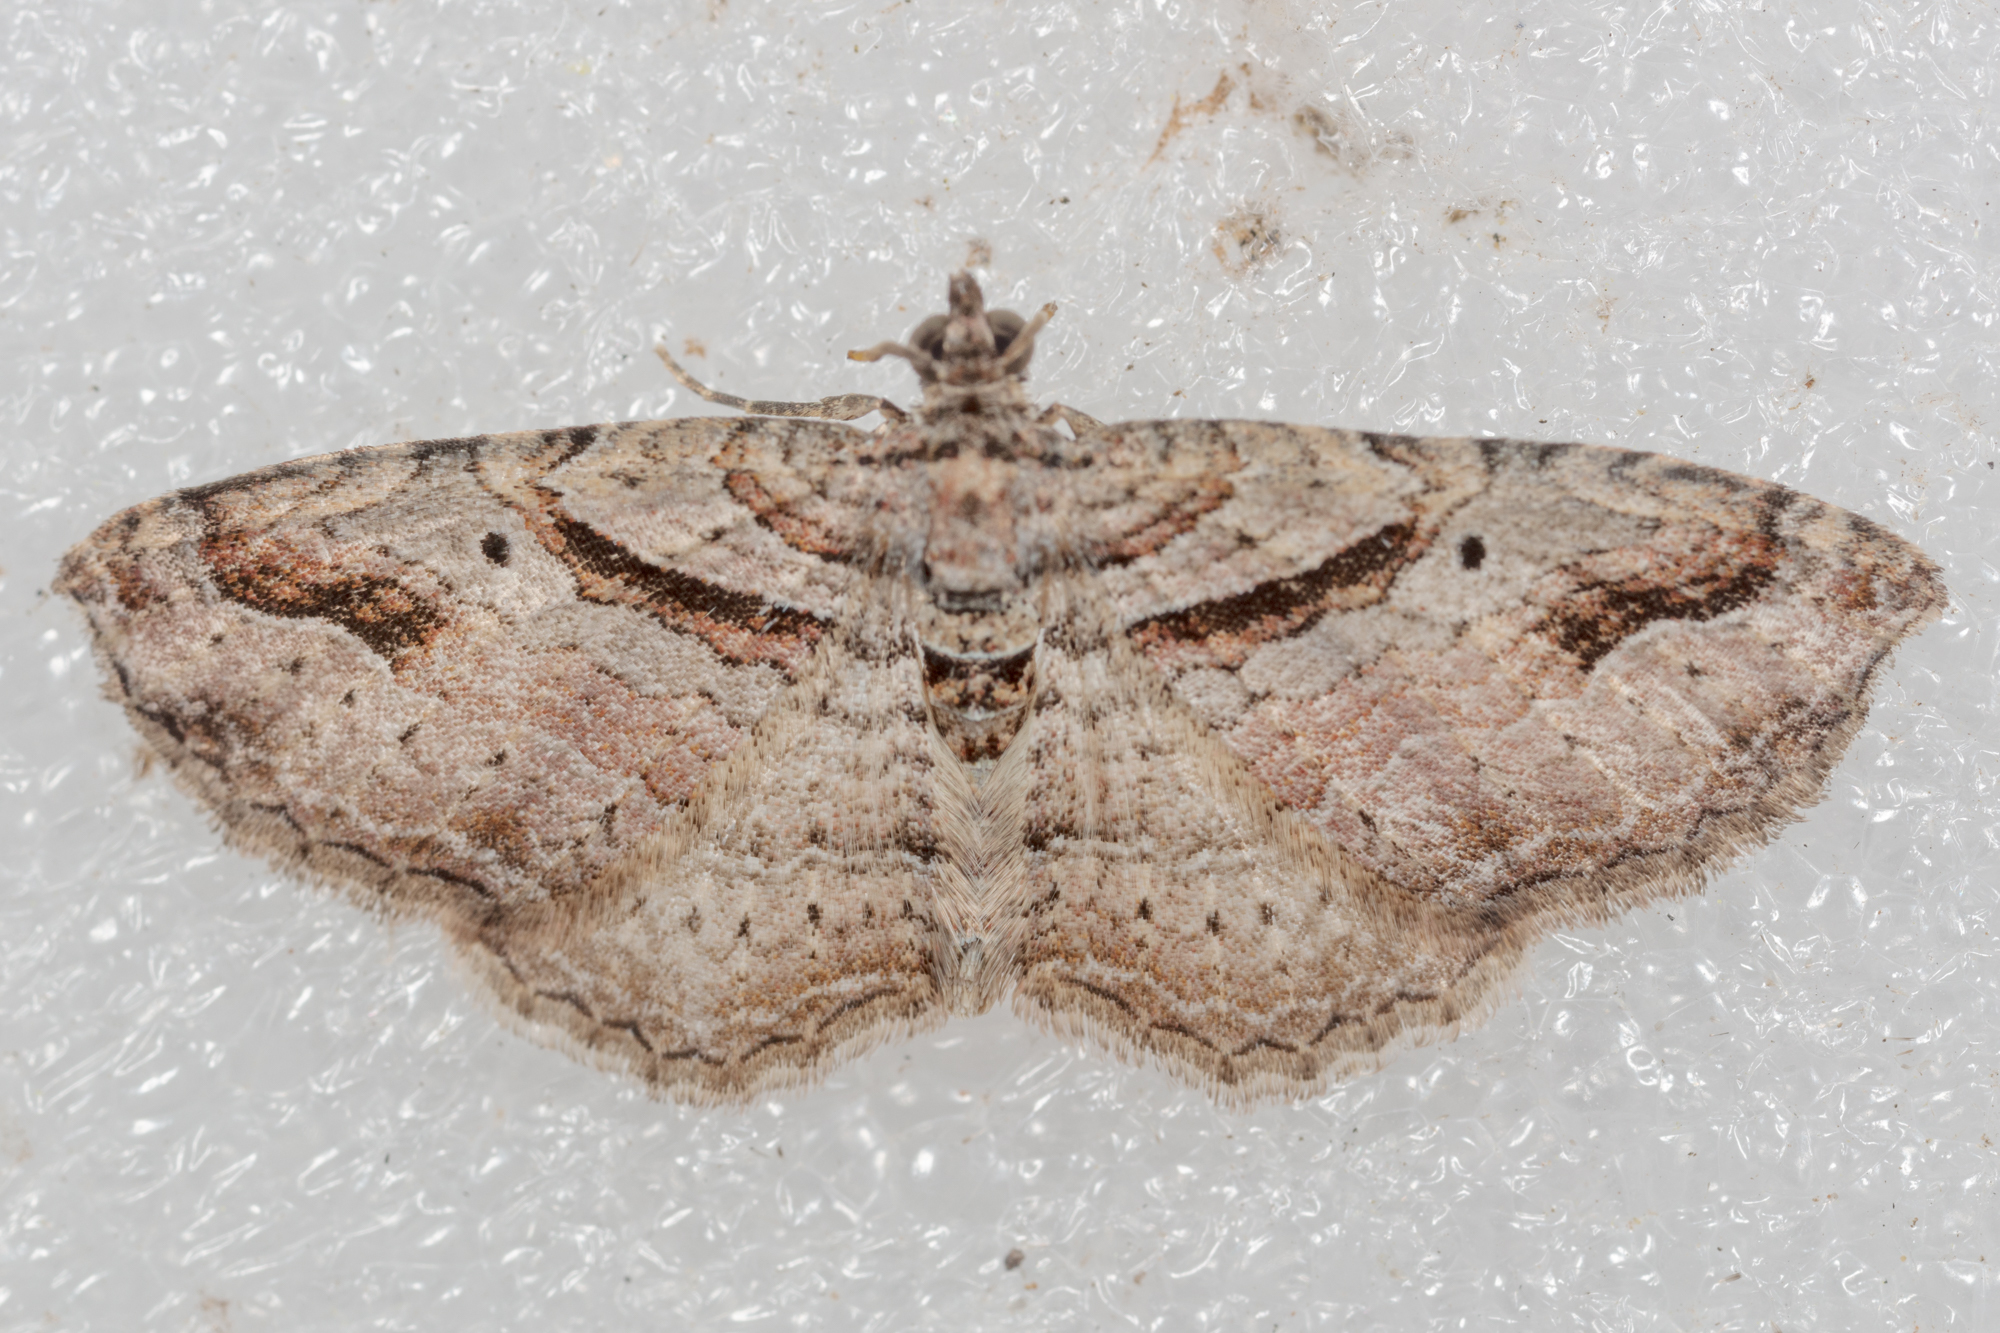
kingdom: Animalia
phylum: Arthropoda
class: Insecta
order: Lepidoptera
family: Geometridae
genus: Costaconvexa
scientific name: Costaconvexa centrostrigaria
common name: Bent-line carpet
